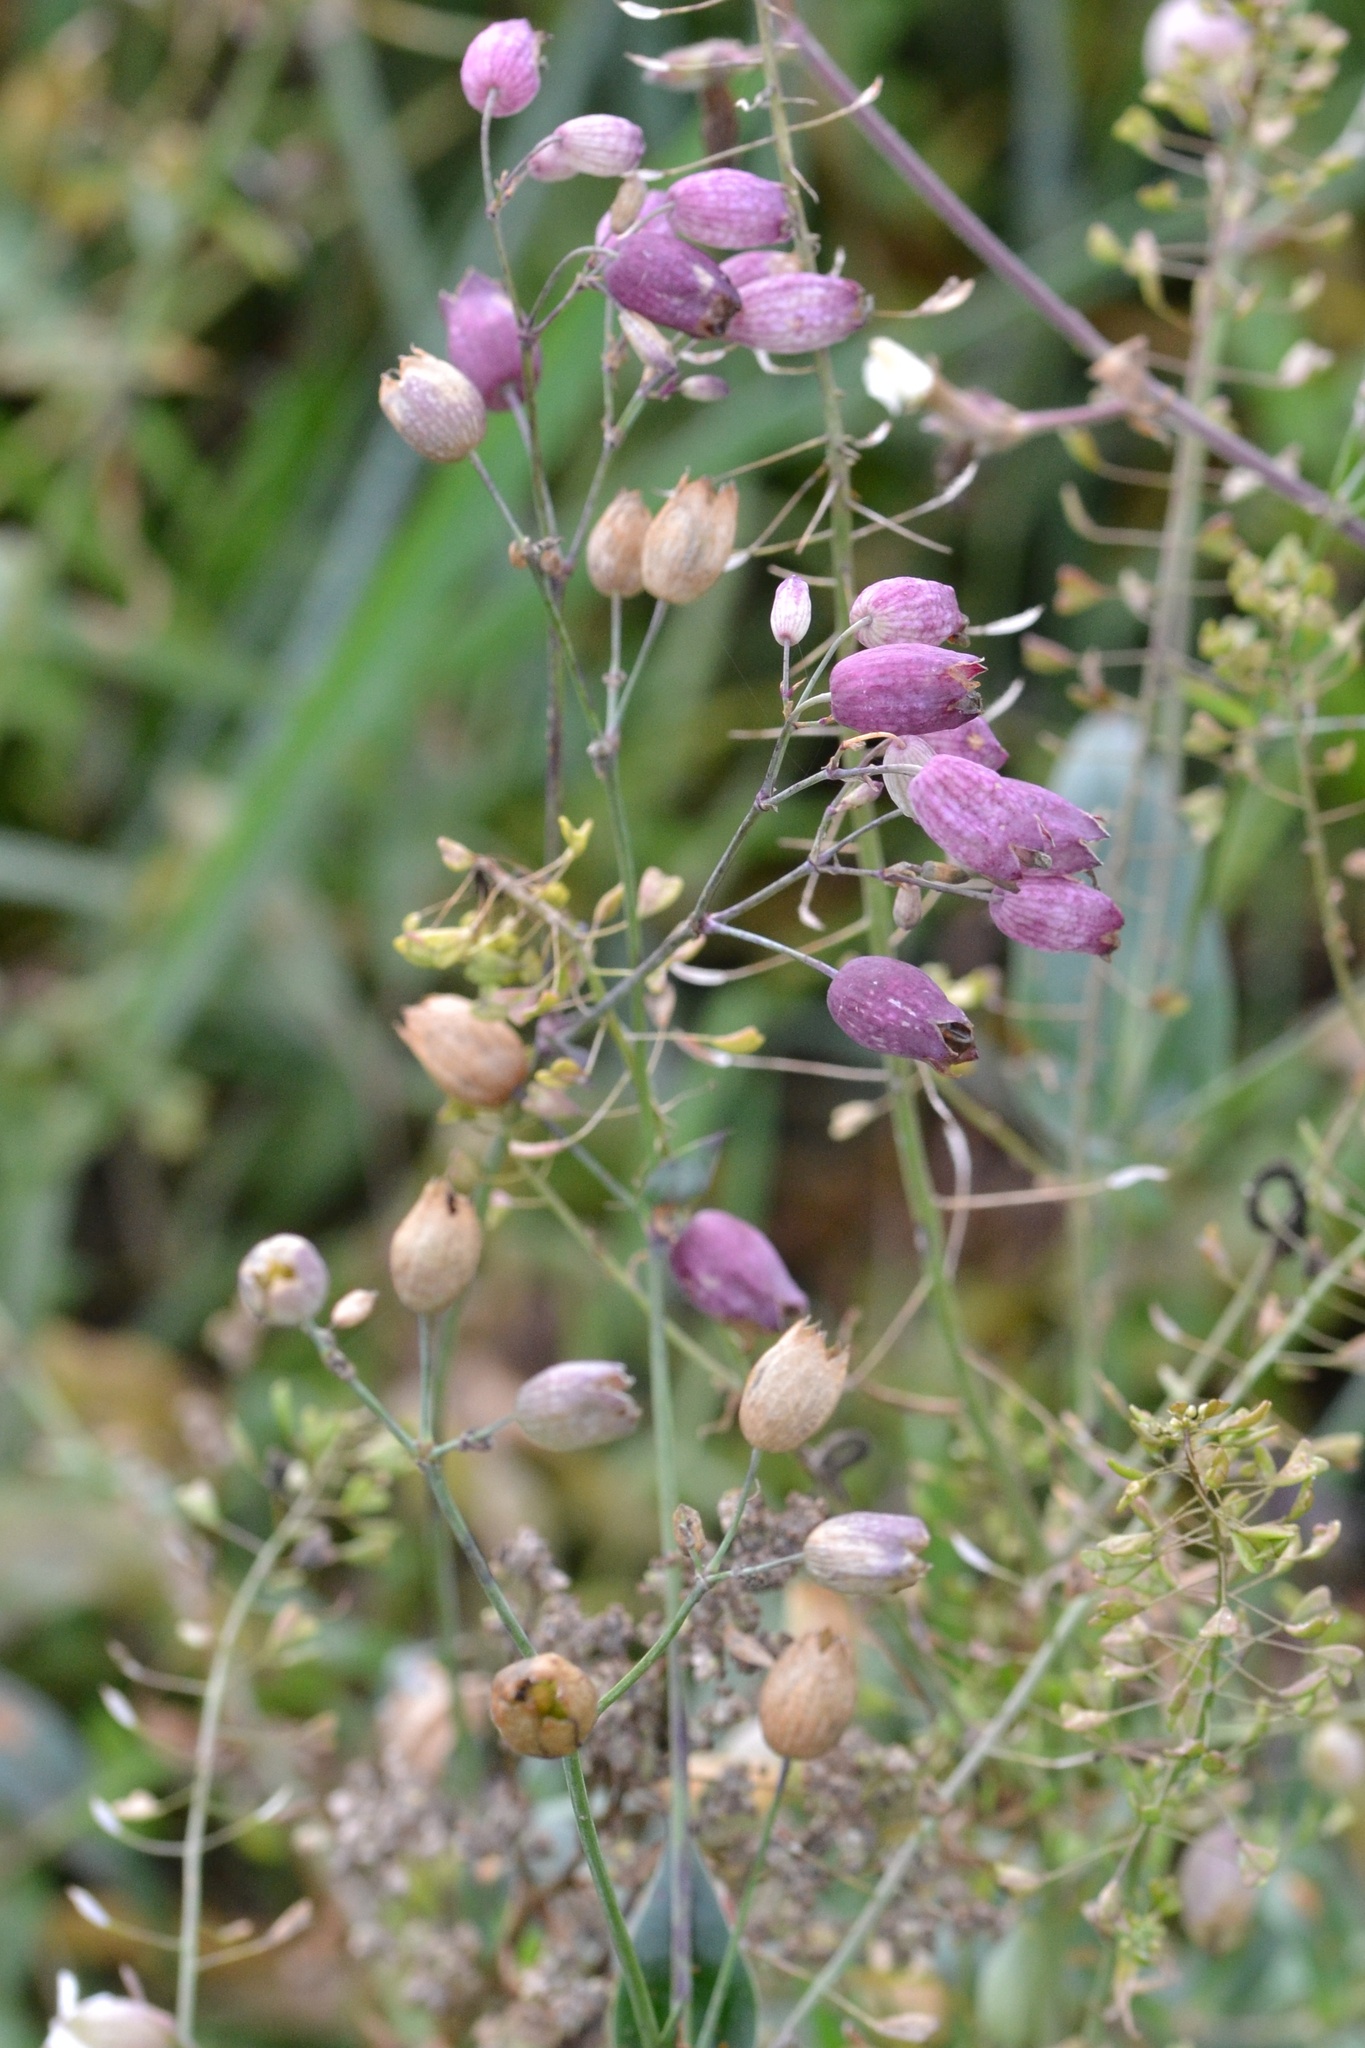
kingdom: Plantae
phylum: Tracheophyta
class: Magnoliopsida
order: Caryophyllales
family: Caryophyllaceae
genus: Silene
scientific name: Silene vulgaris
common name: Bladder campion
